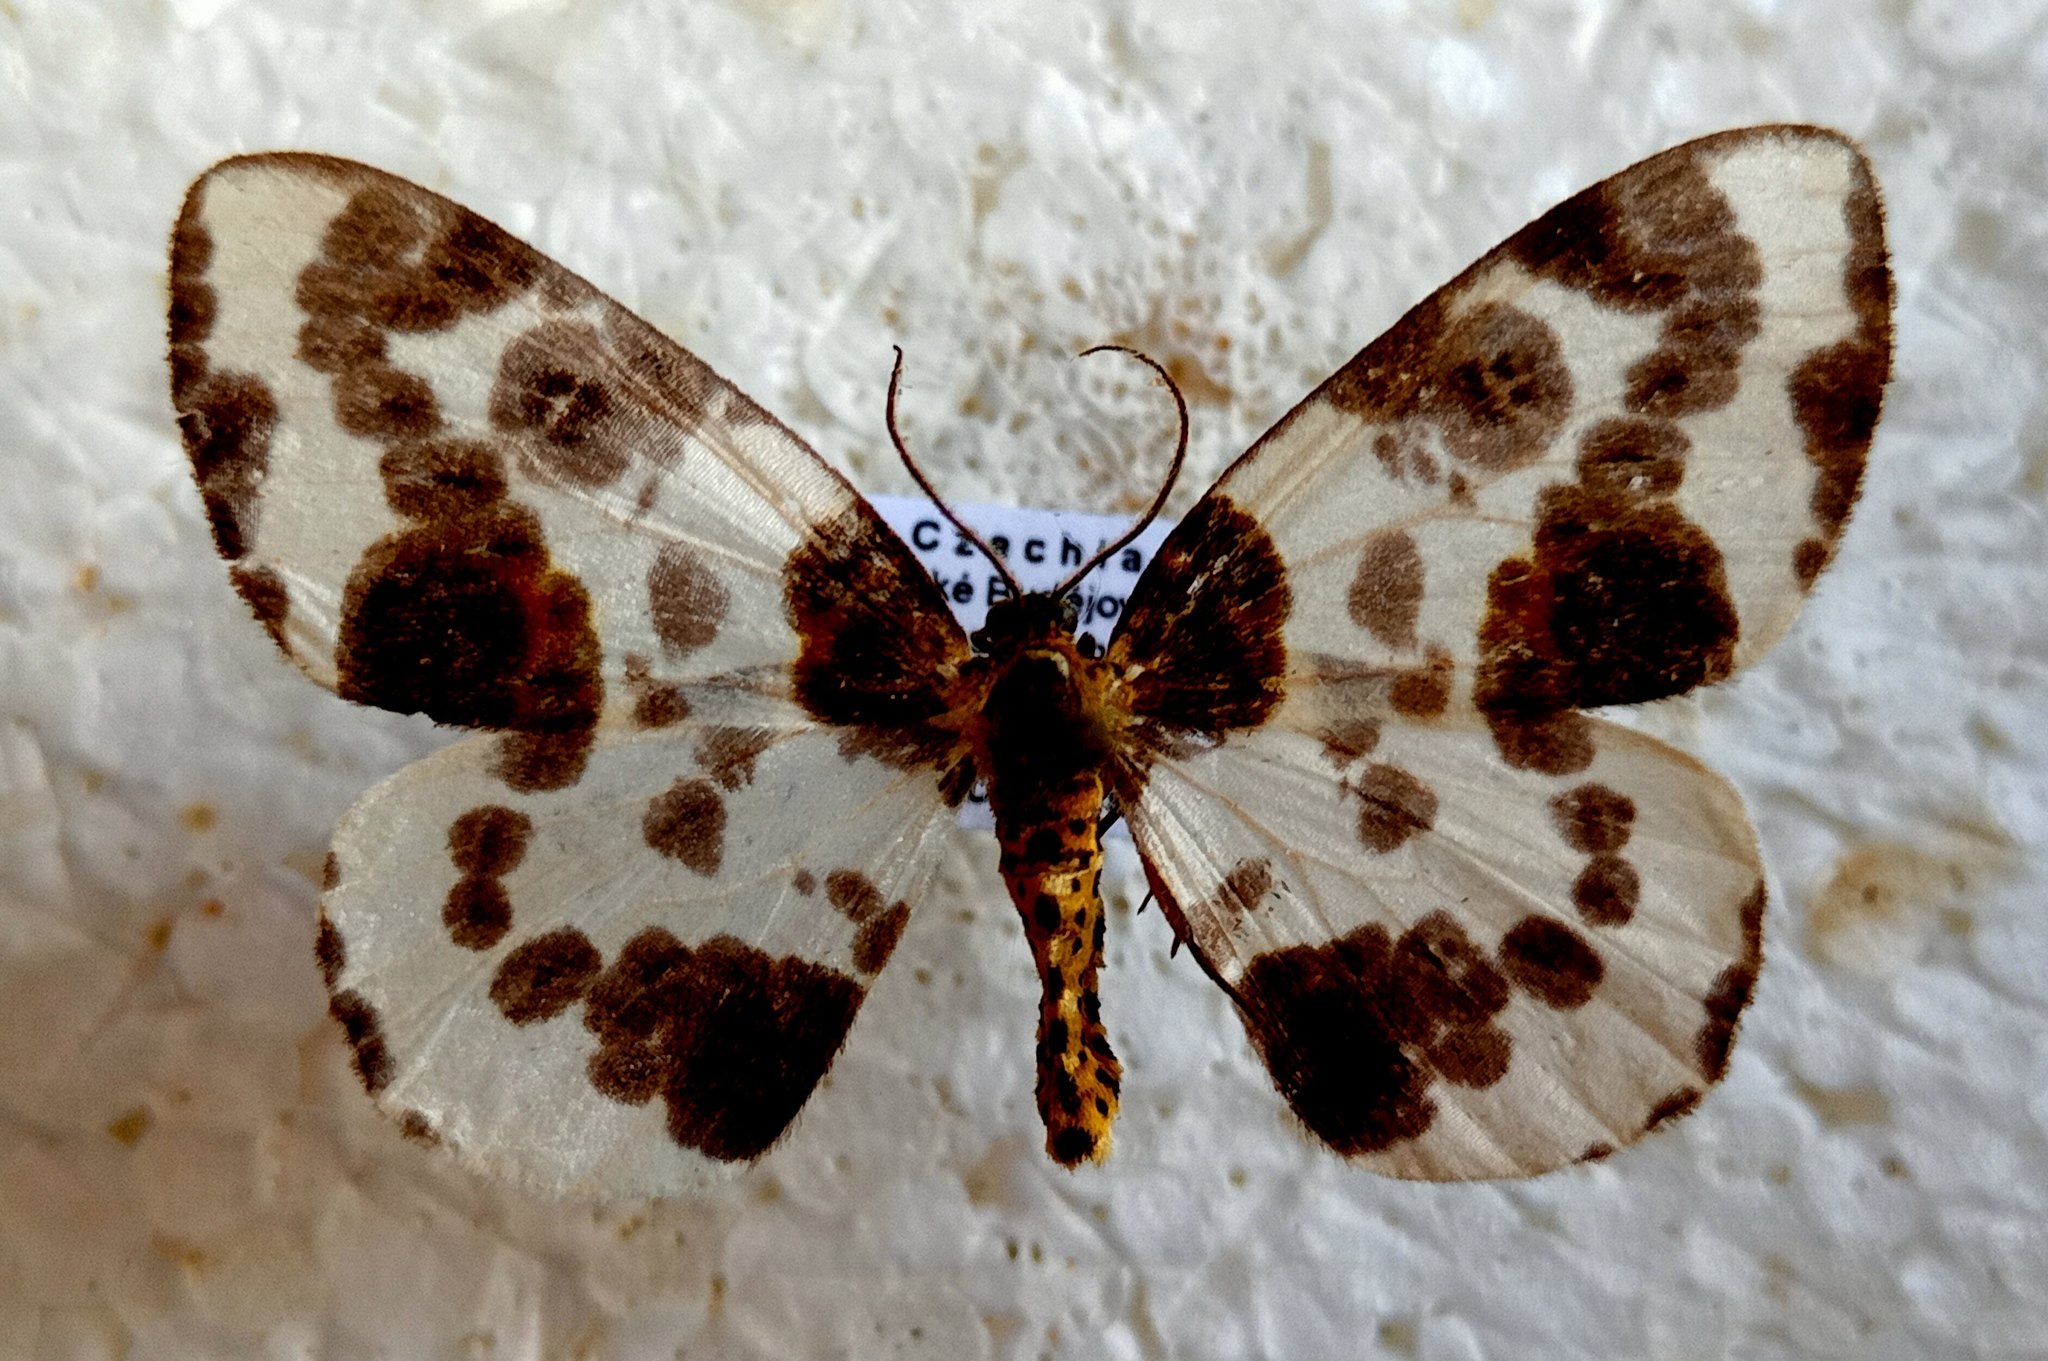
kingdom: Animalia
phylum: Arthropoda
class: Insecta
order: Lepidoptera
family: Geometridae
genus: Abraxas
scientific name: Abraxas sylvata
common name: Clouded magpie
